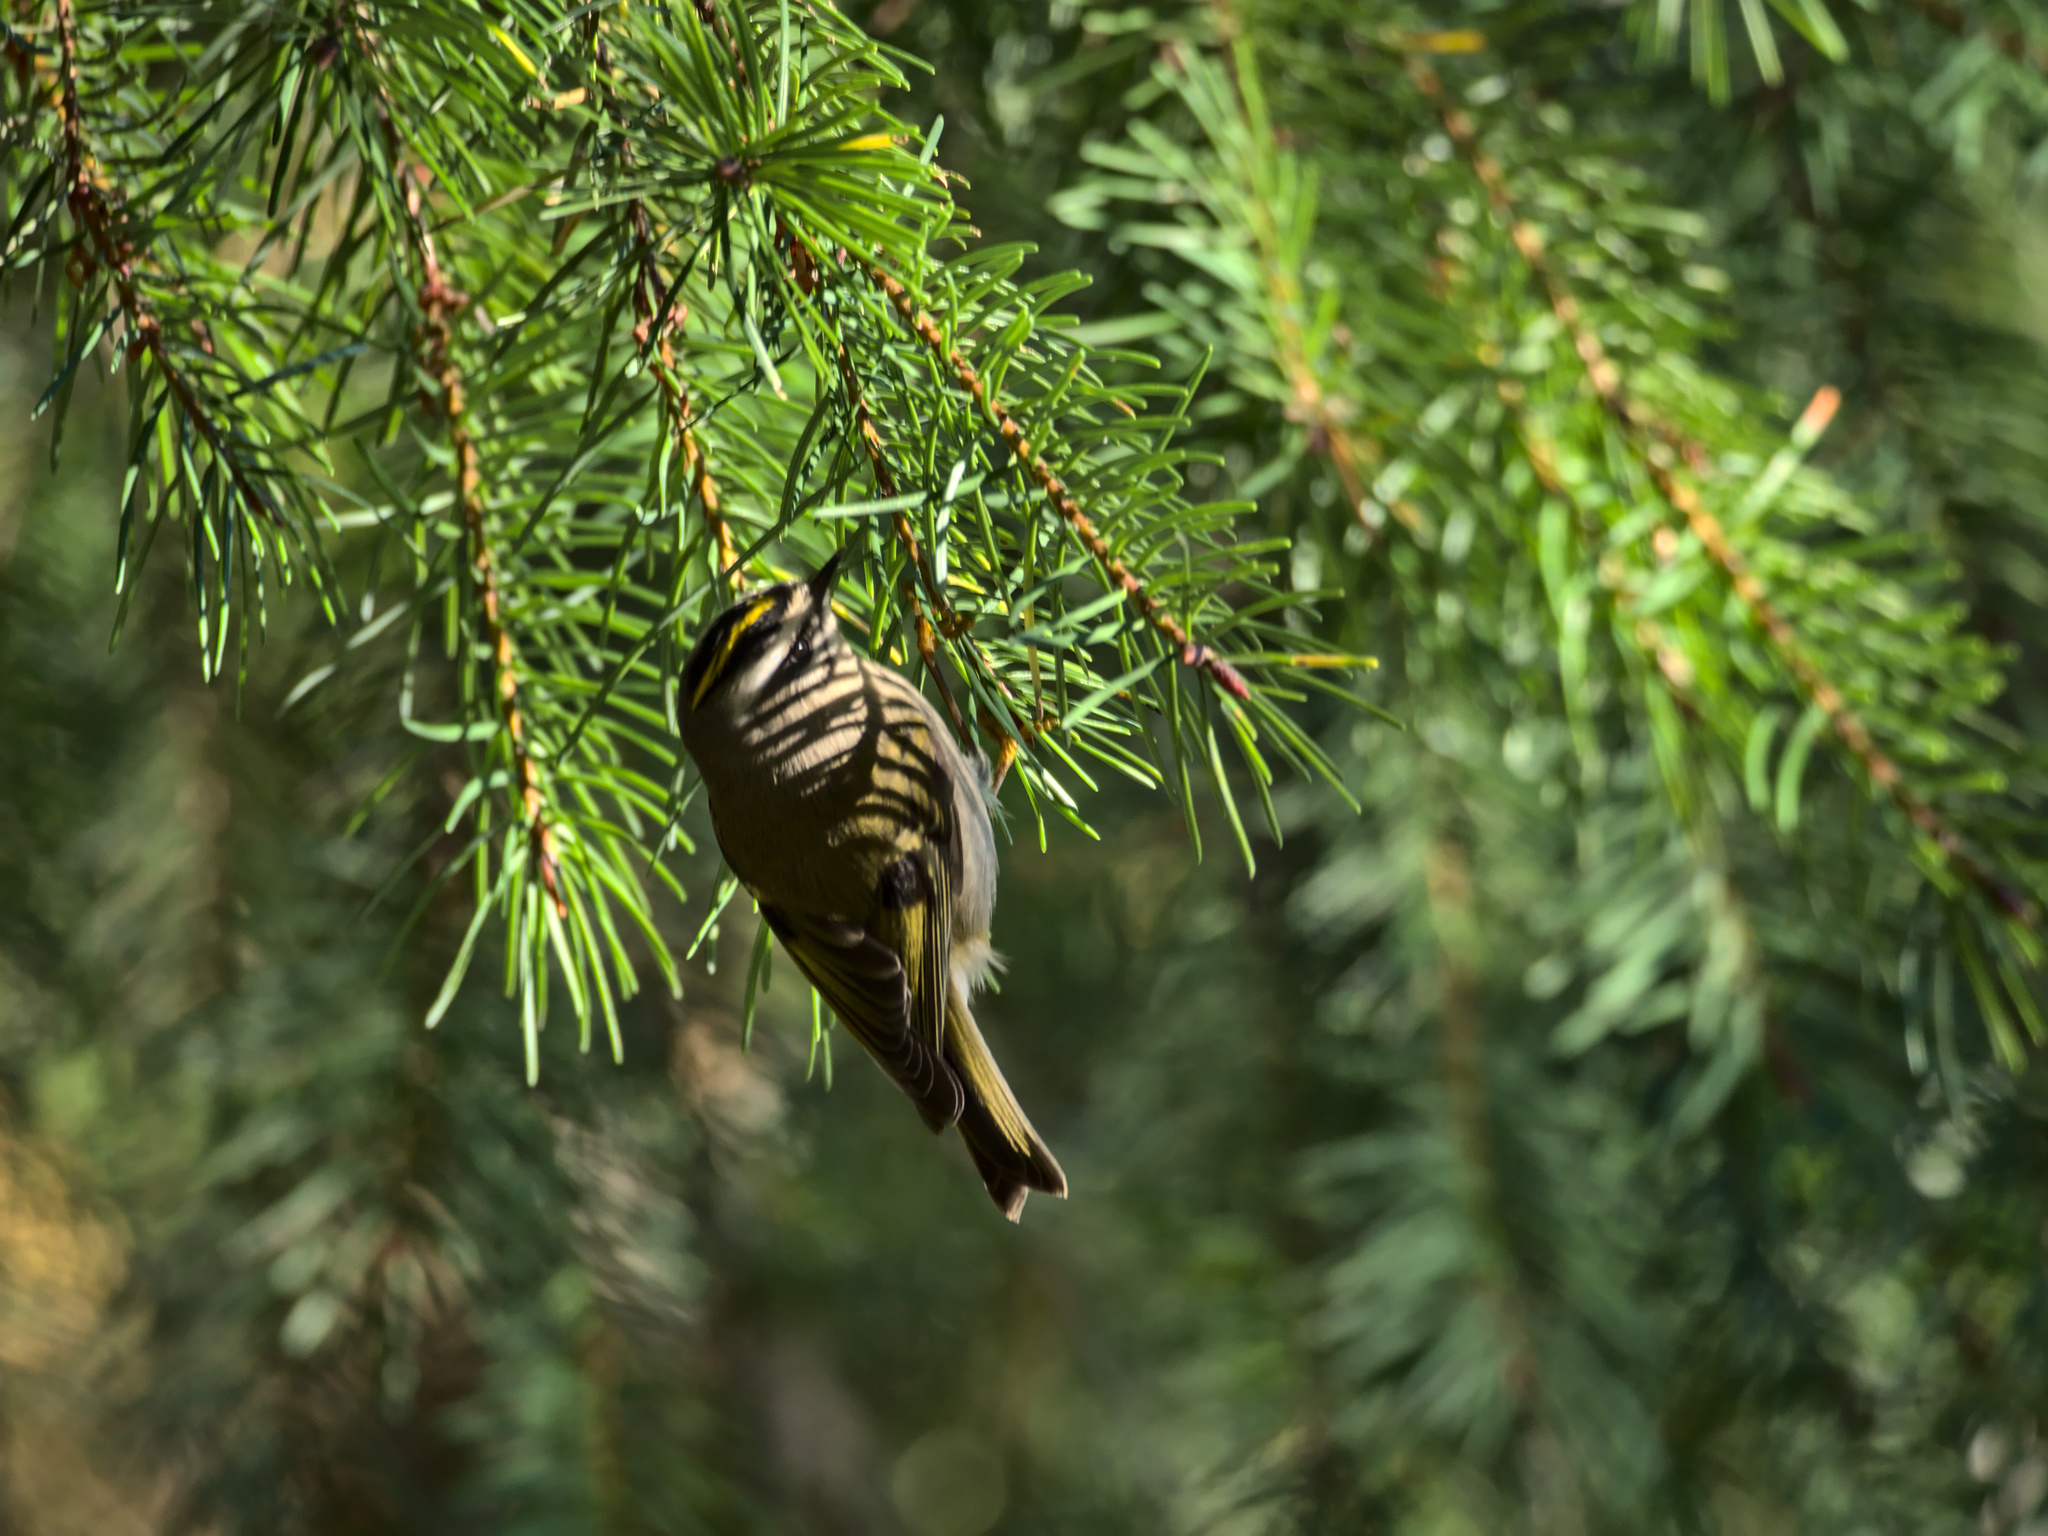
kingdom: Animalia
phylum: Chordata
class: Aves
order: Passeriformes
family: Regulidae
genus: Regulus
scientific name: Regulus satrapa
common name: Golden-crowned kinglet
